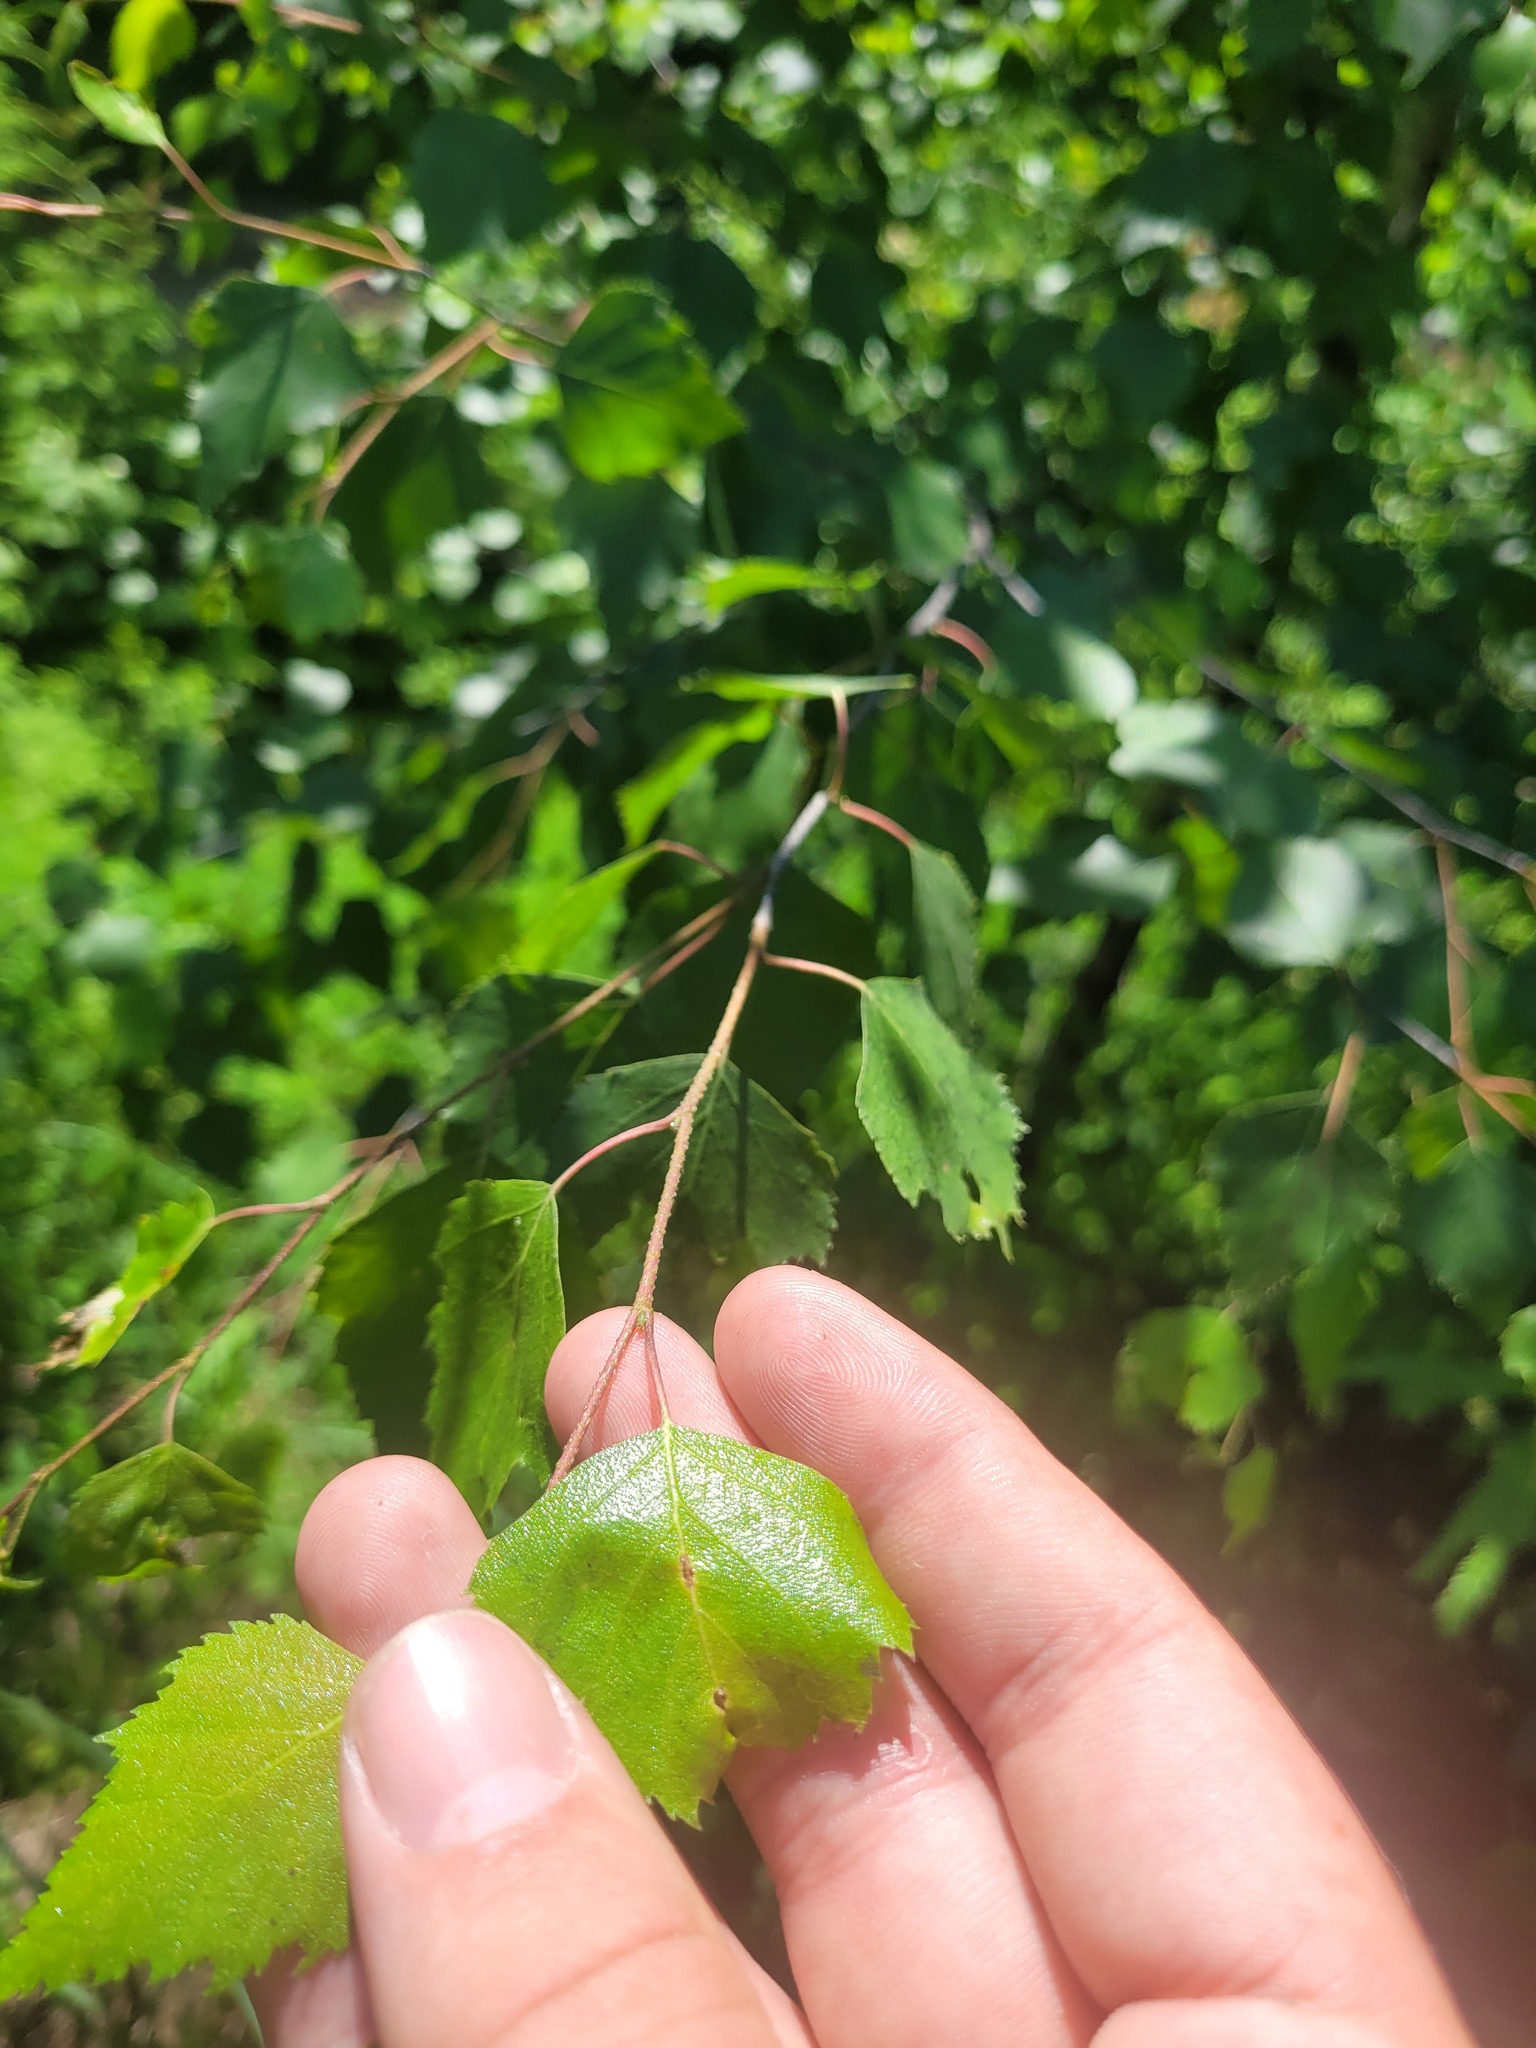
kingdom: Plantae
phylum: Tracheophyta
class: Magnoliopsida
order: Fagales
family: Betulaceae
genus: Betula
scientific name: Betula pendula
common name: Silver birch
